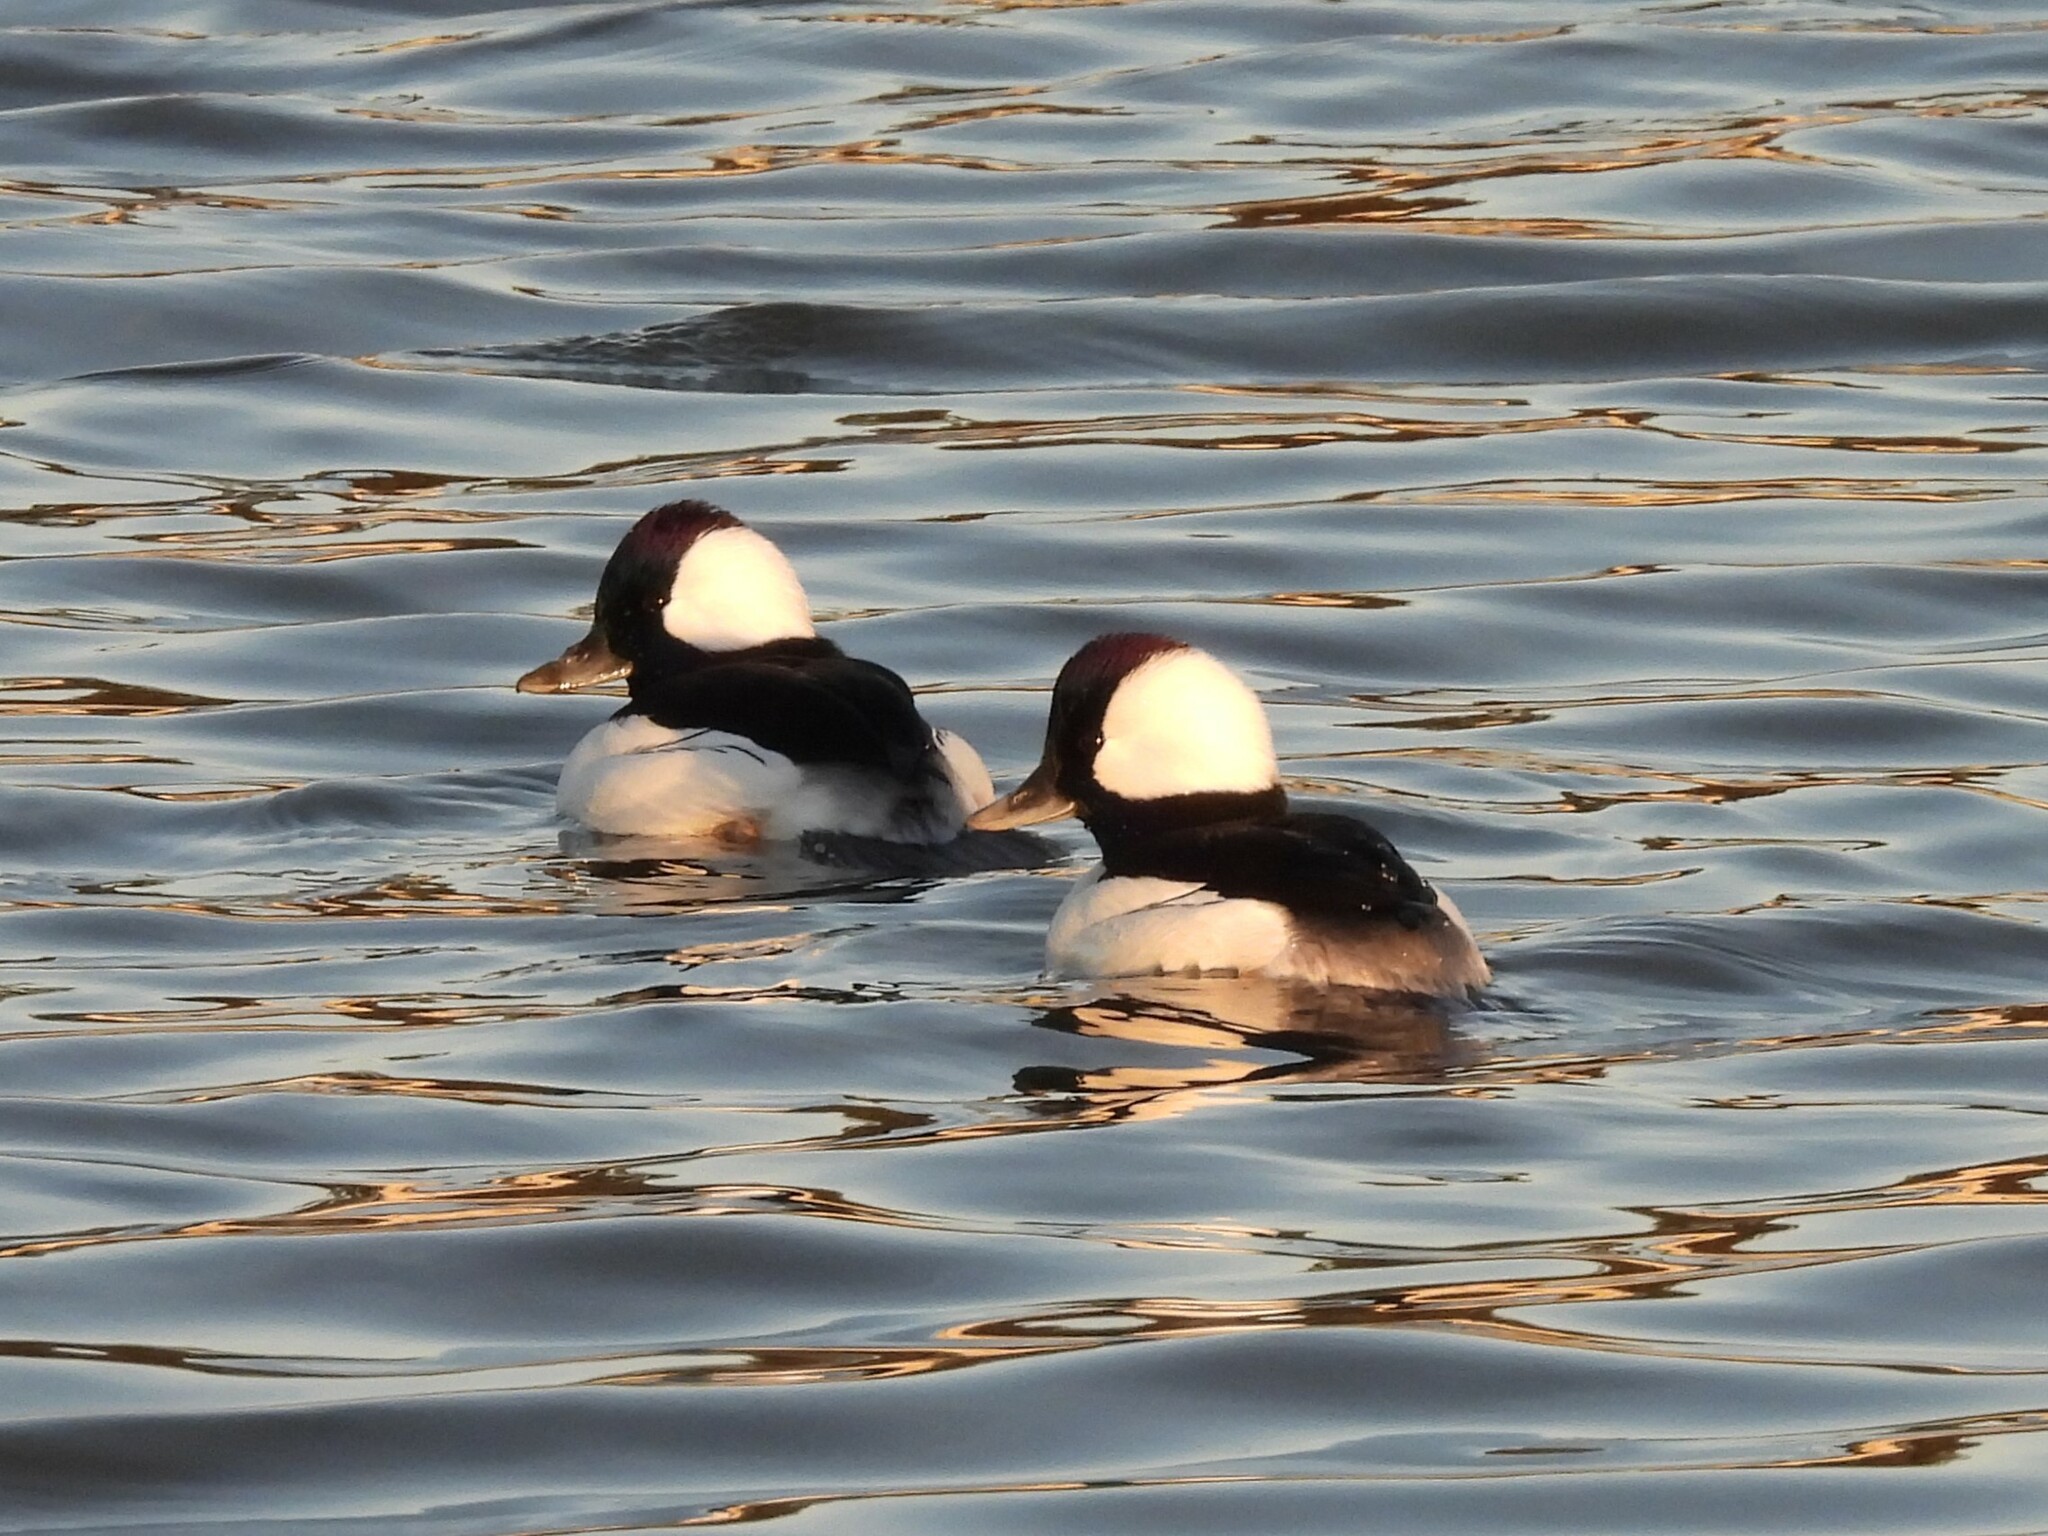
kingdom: Animalia
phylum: Chordata
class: Aves
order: Anseriformes
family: Anatidae
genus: Bucephala
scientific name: Bucephala albeola
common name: Bufflehead
